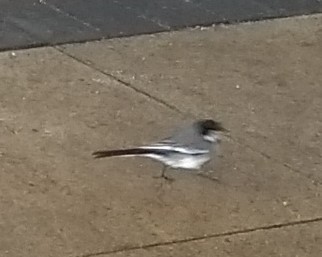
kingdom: Animalia
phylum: Chordata
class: Aves
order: Passeriformes
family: Motacillidae
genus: Motacilla
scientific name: Motacilla alba
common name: White wagtail
